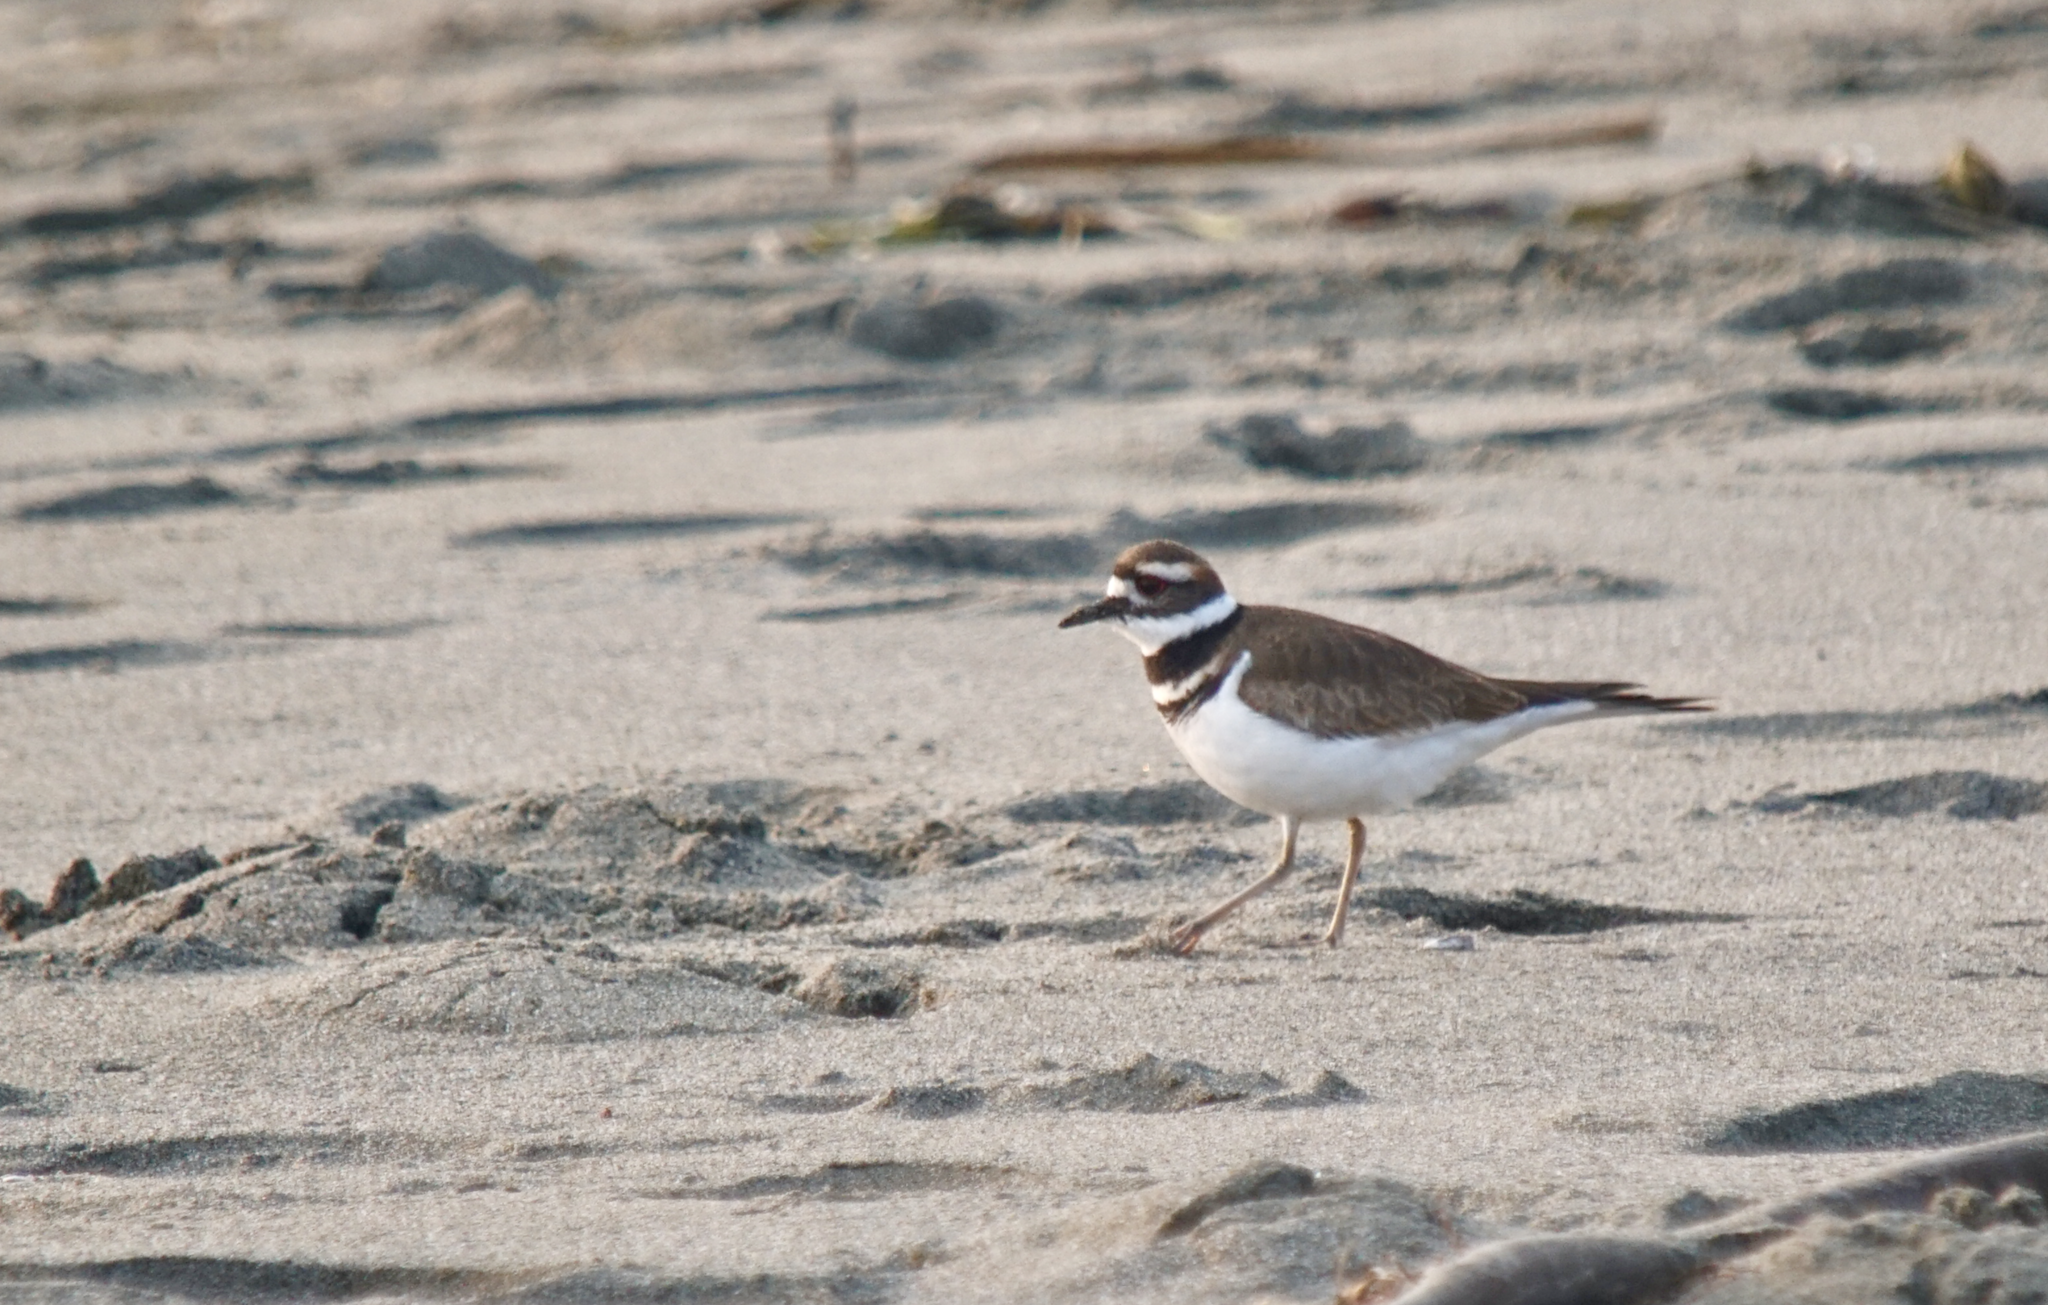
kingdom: Animalia
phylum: Chordata
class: Aves
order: Charadriiformes
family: Charadriidae
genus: Charadrius
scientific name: Charadrius vociferus
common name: Killdeer
